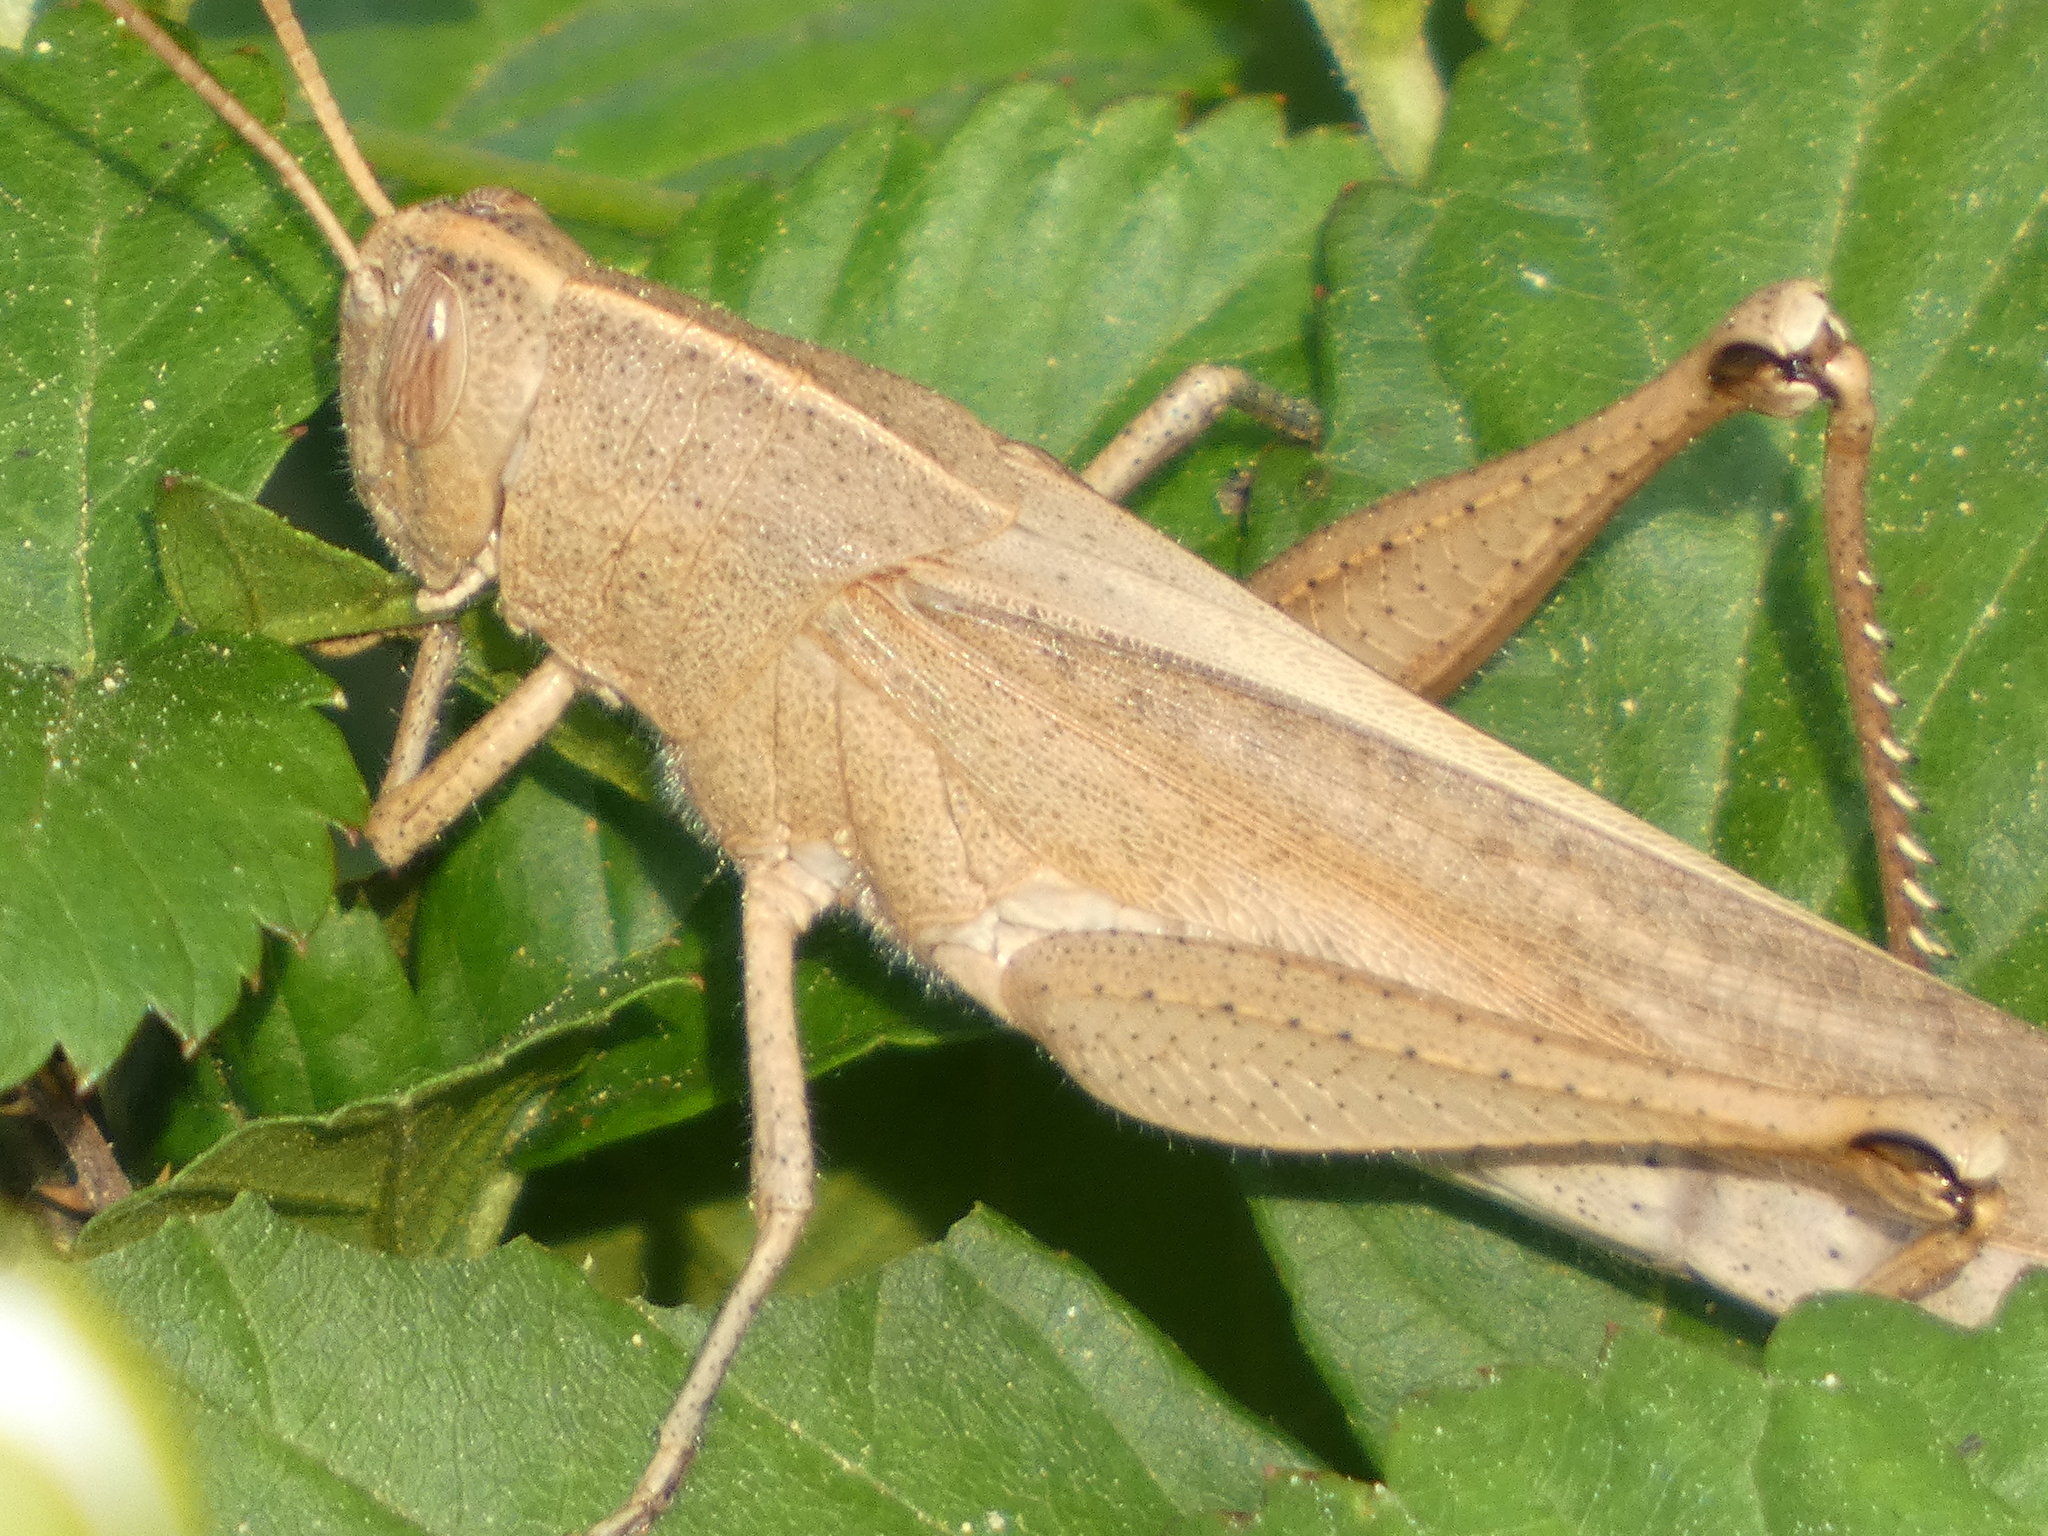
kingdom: Animalia
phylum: Arthropoda
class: Insecta
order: Orthoptera
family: Acrididae
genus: Schistocerca
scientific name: Schistocerca damnifica
